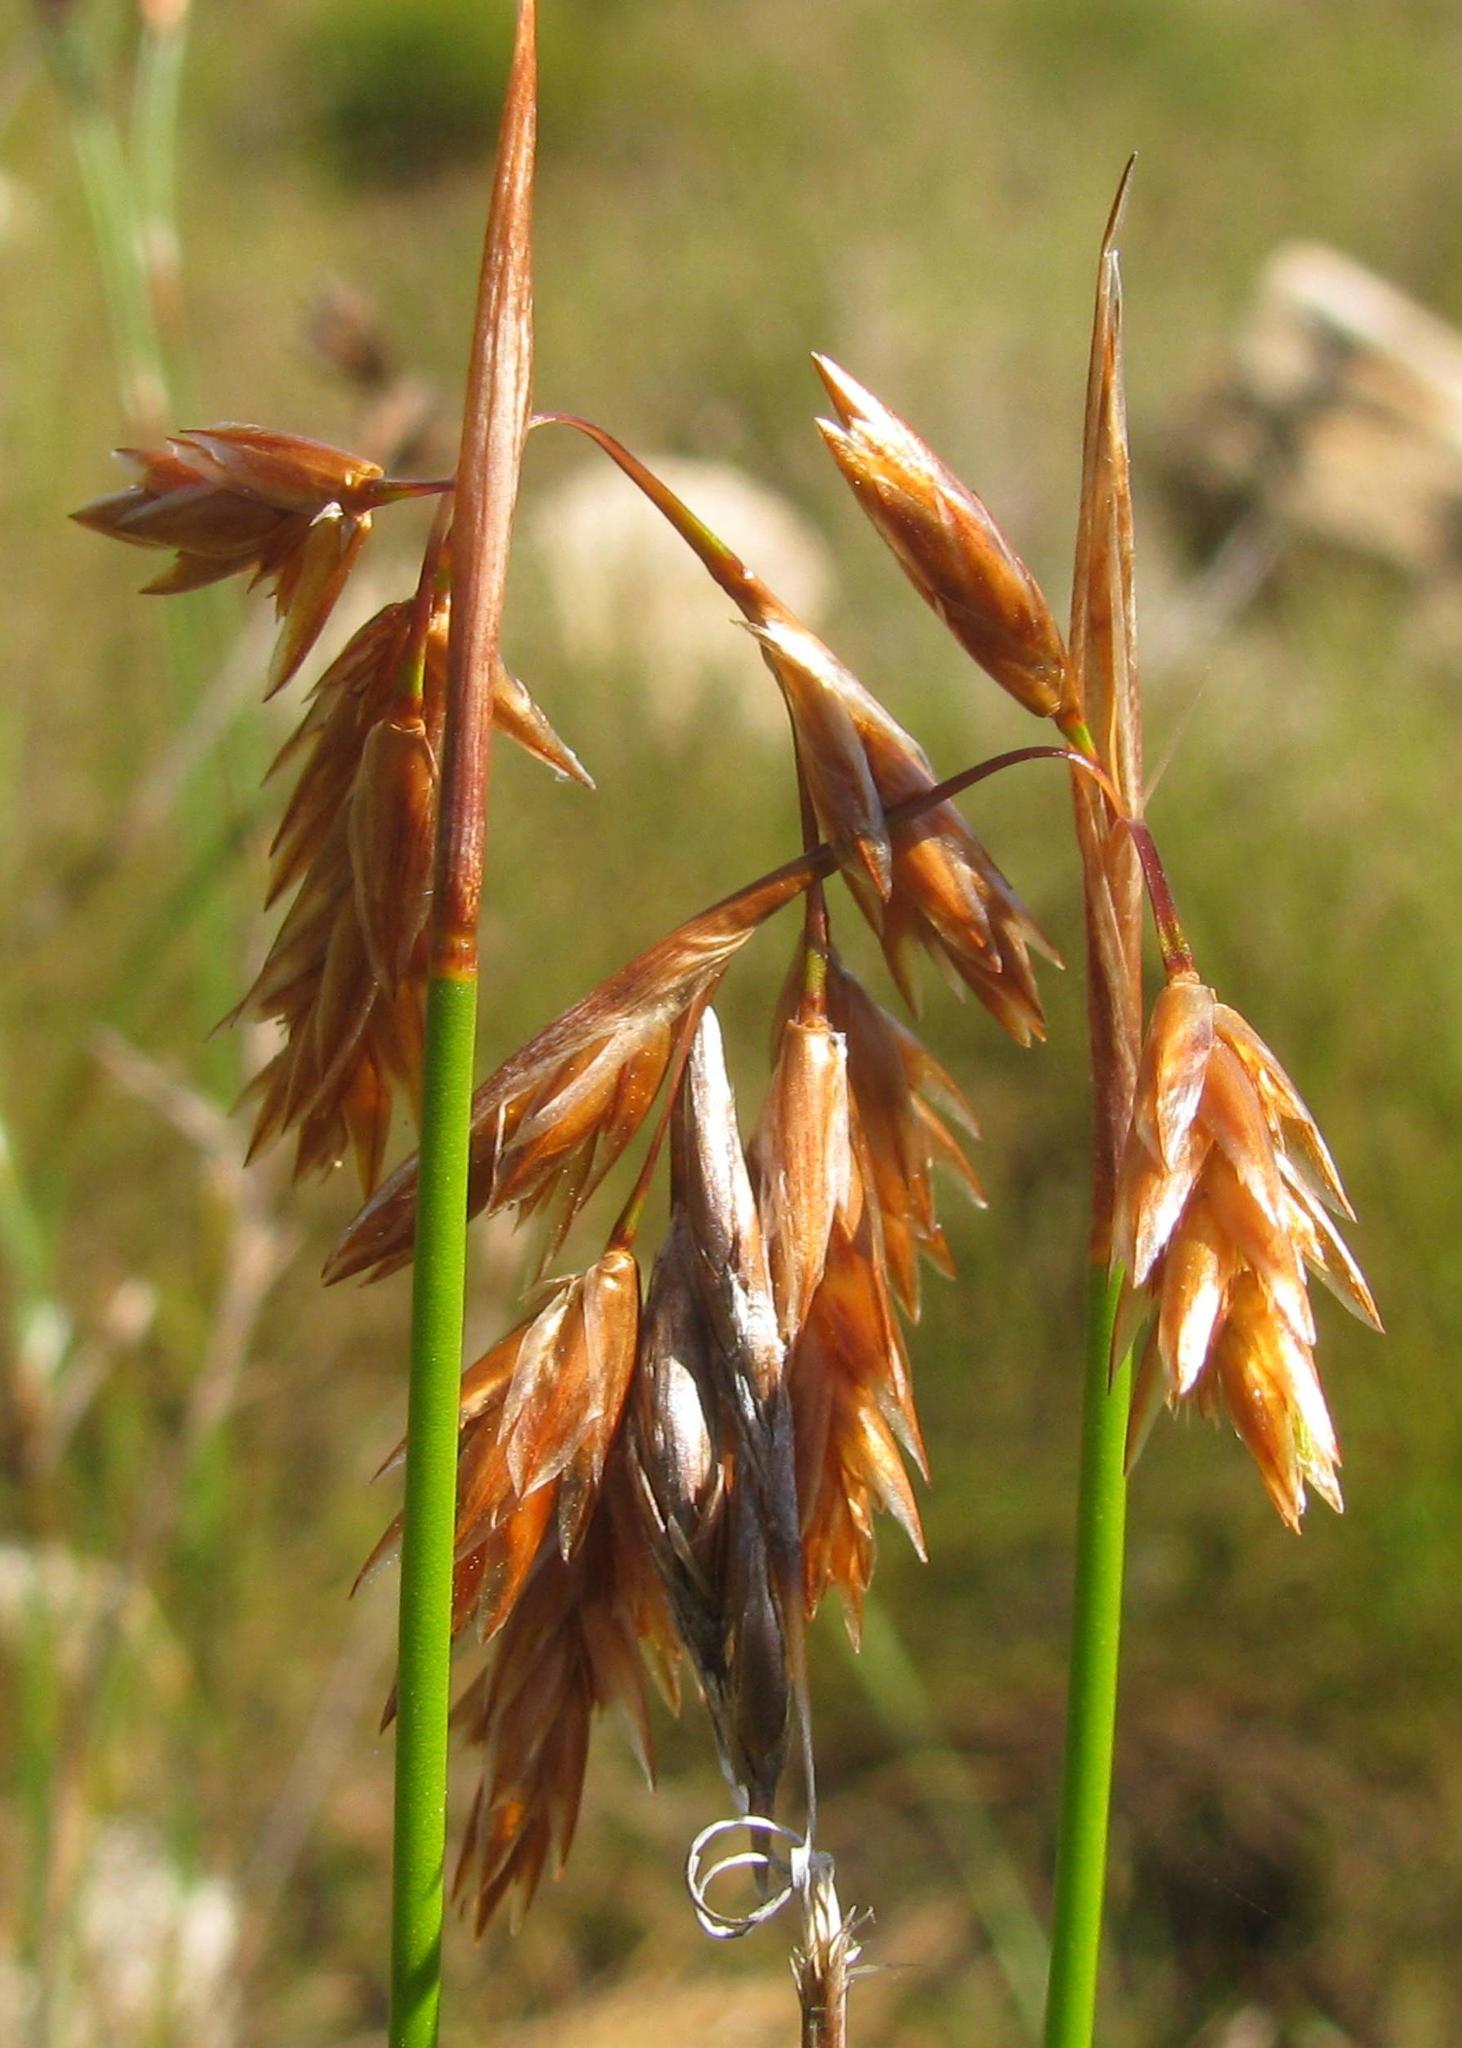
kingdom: Plantae
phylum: Tracheophyta
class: Liliopsida
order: Poales
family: Restionaceae
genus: Thamnochortus
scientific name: Thamnochortus sporadicus
